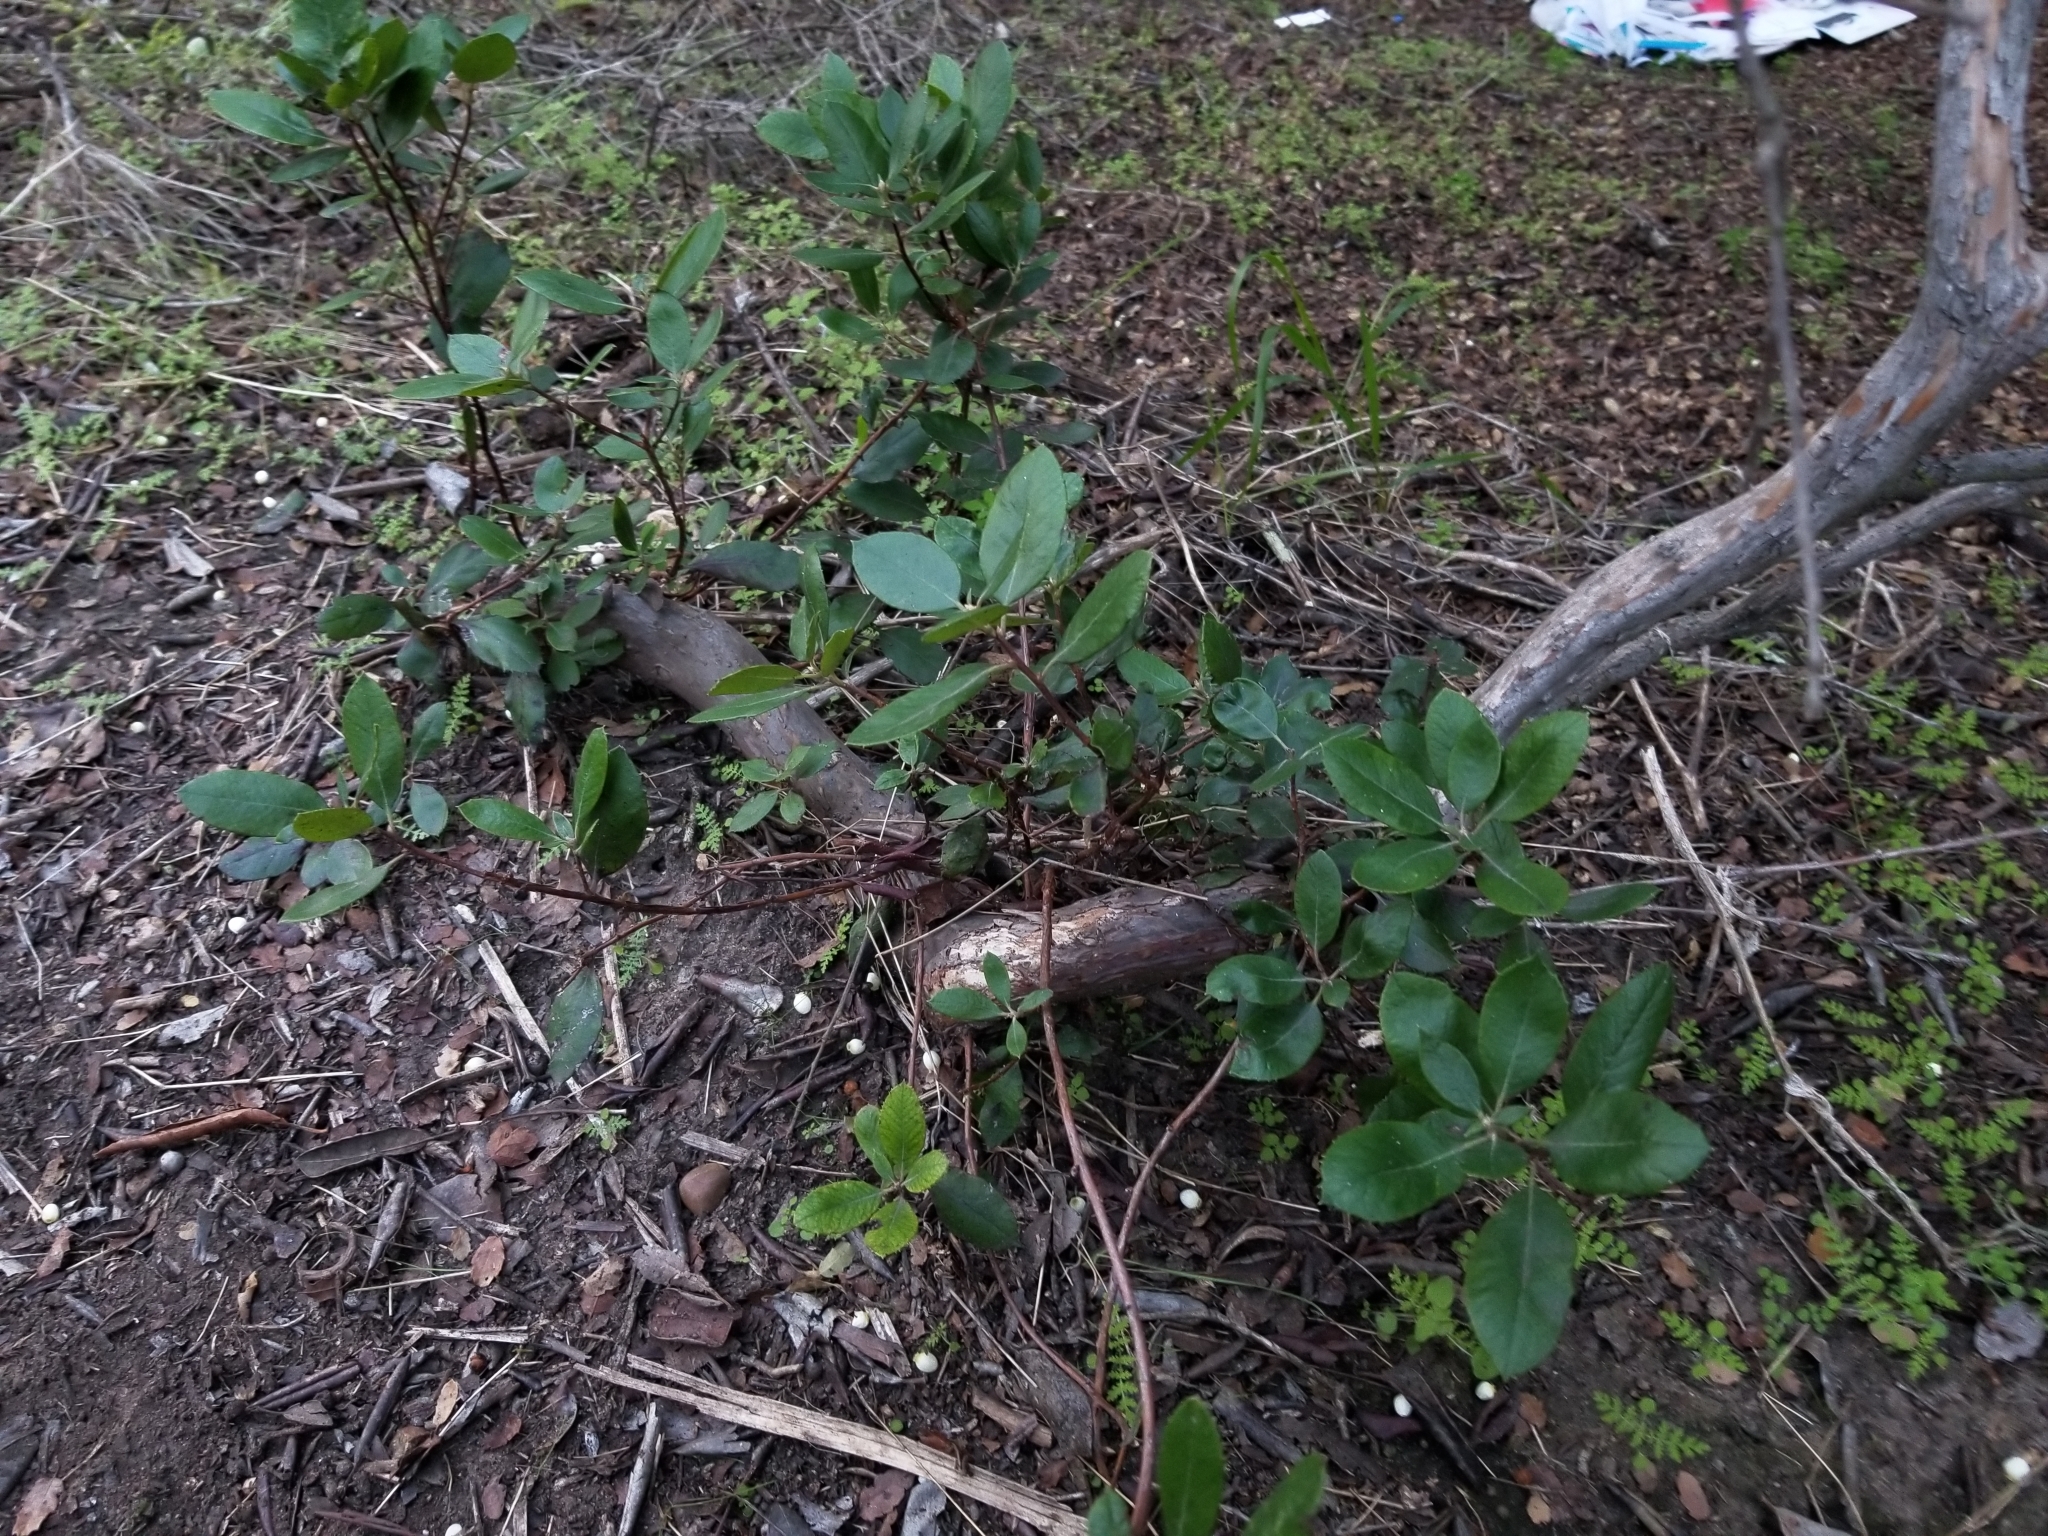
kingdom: Plantae
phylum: Tracheophyta
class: Magnoliopsida
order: Ericales
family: Ericaceae
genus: Arctostaphylos
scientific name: Arctostaphylos bicolor
